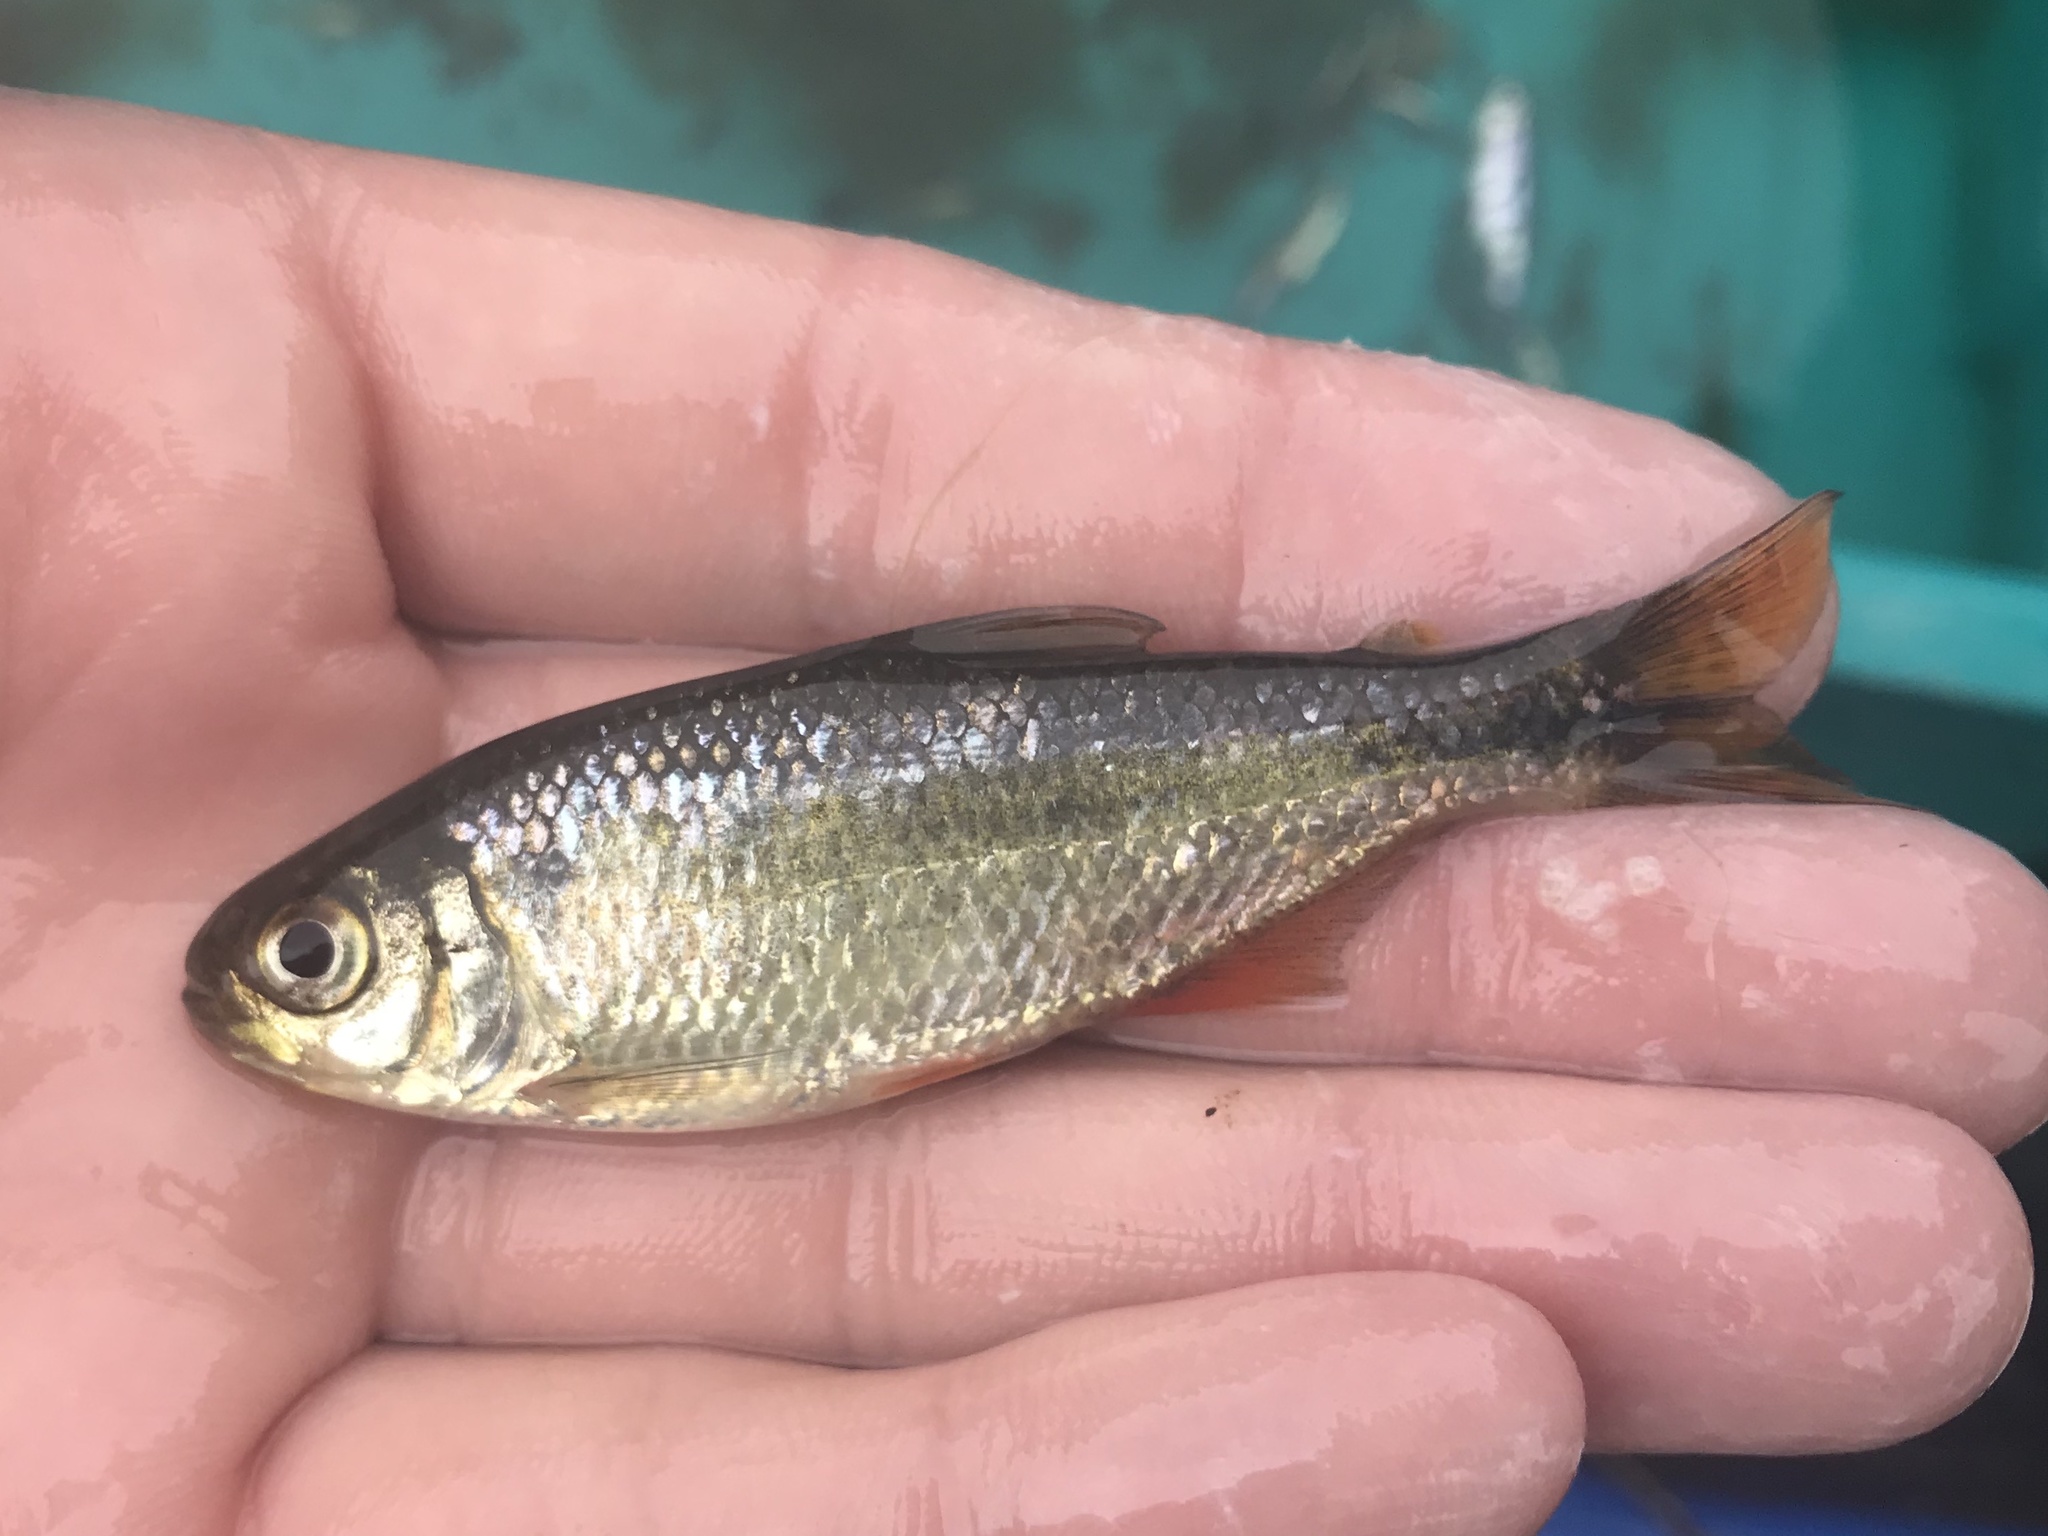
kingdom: Animalia
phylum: Chordata
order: Characiformes
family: Characidae
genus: Astyanax
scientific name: Astyanax mexicanus
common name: Mexican tetra
